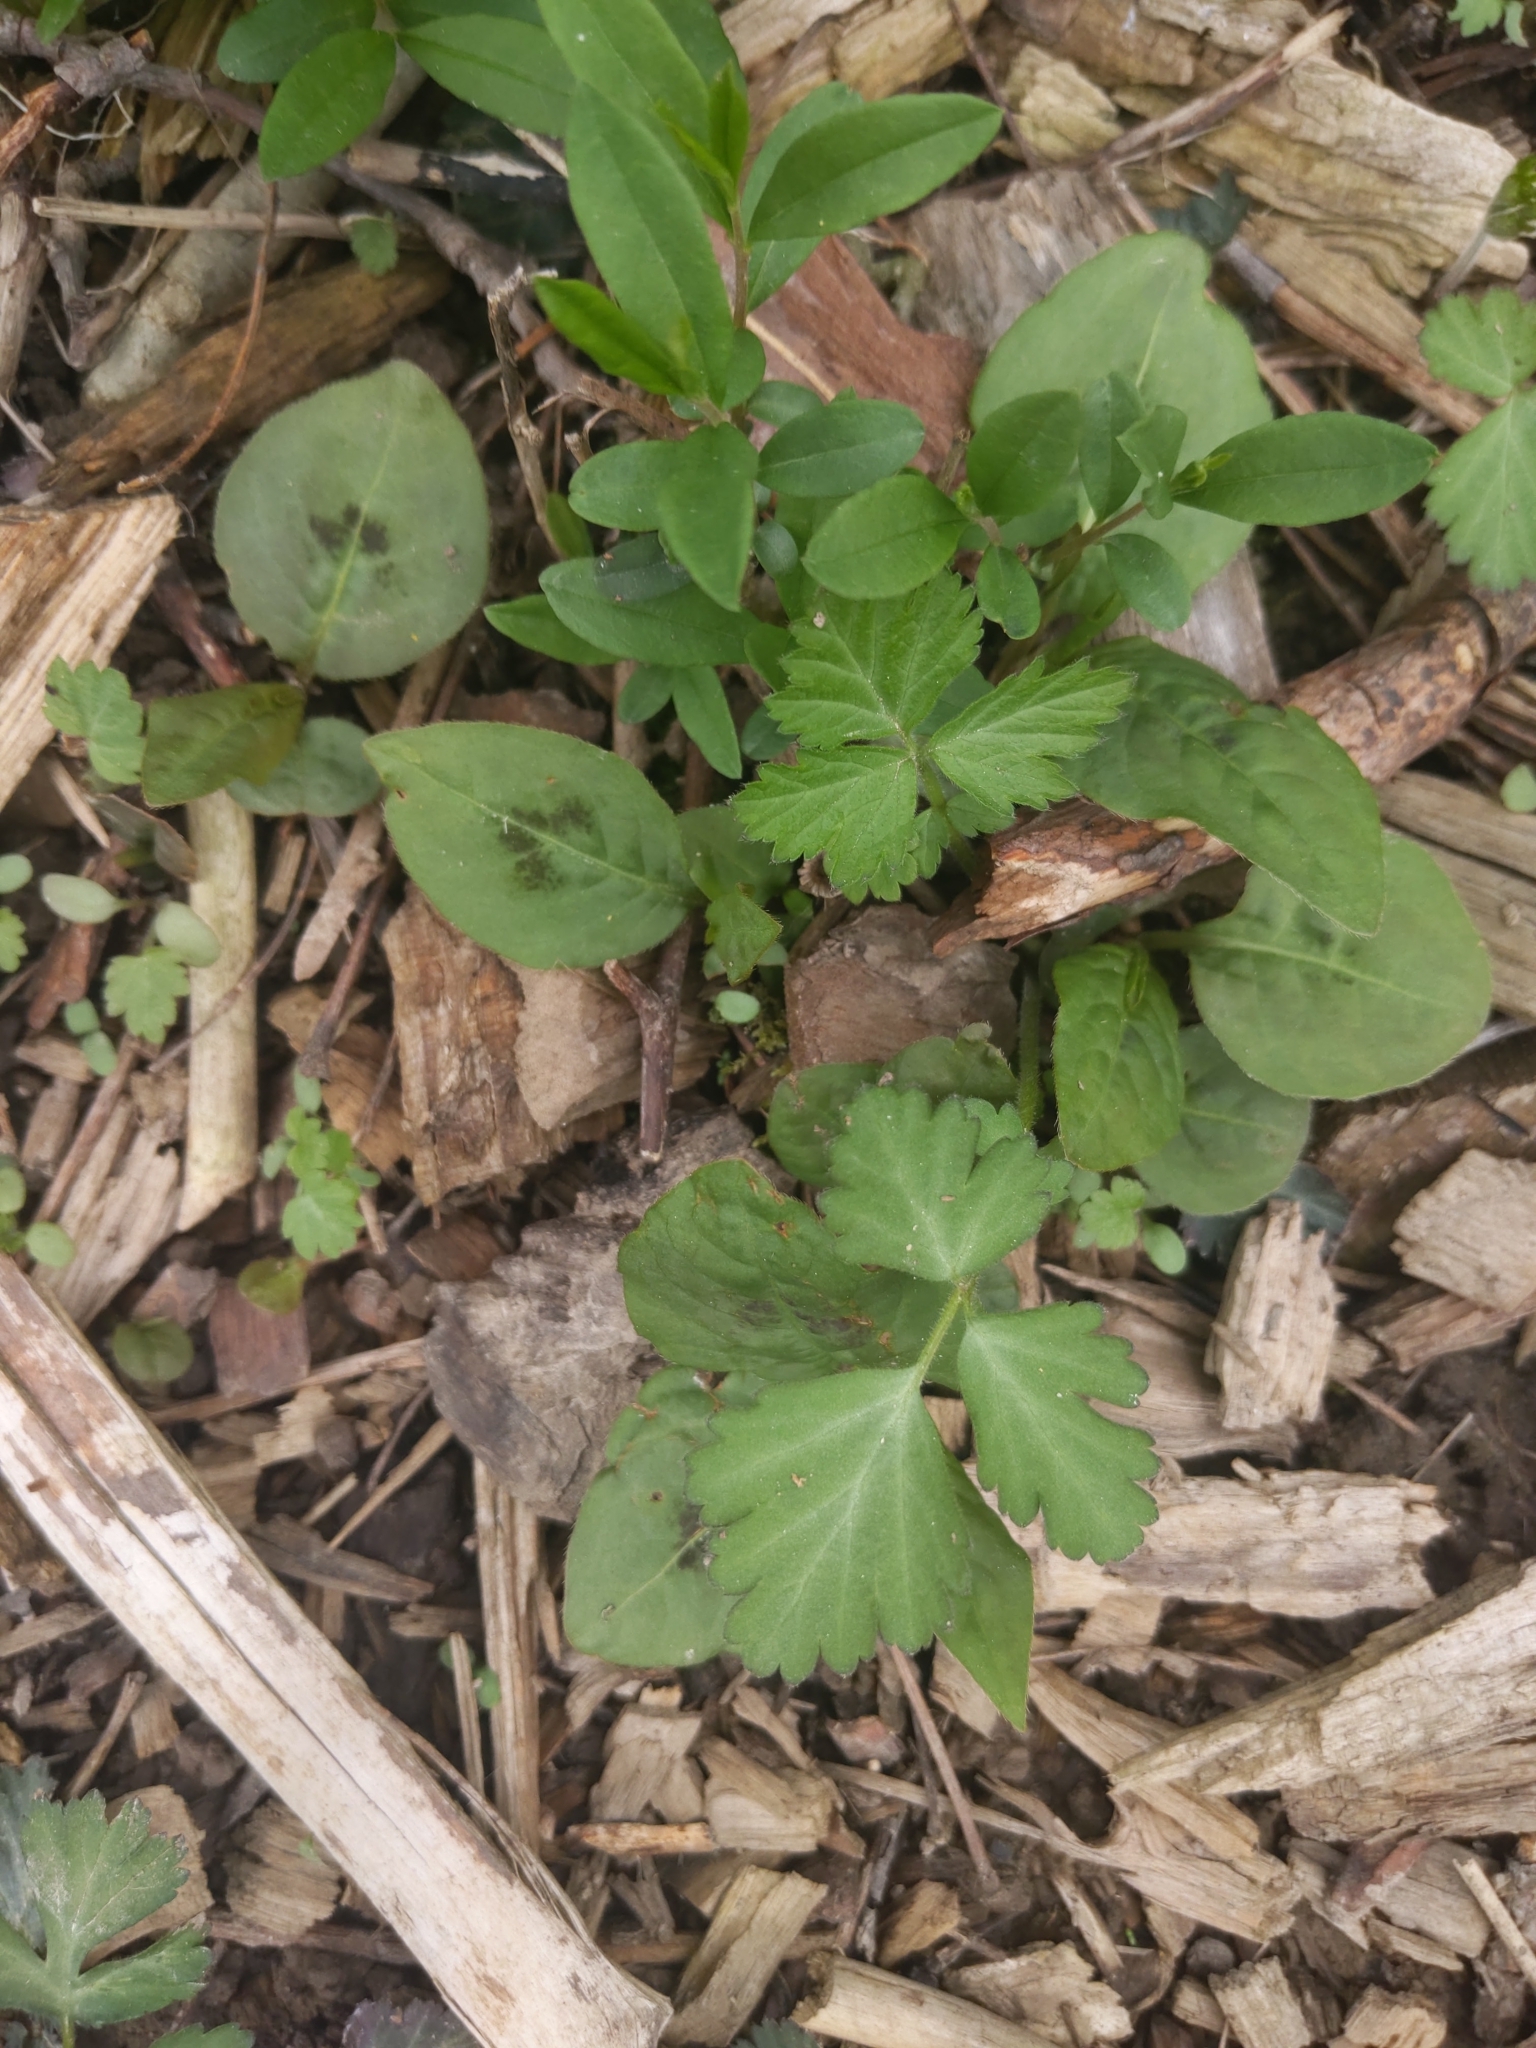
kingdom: Plantae
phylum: Tracheophyta
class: Magnoliopsida
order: Caryophyllales
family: Polygonaceae
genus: Persicaria
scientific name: Persicaria virginiana
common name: Jumpseed
